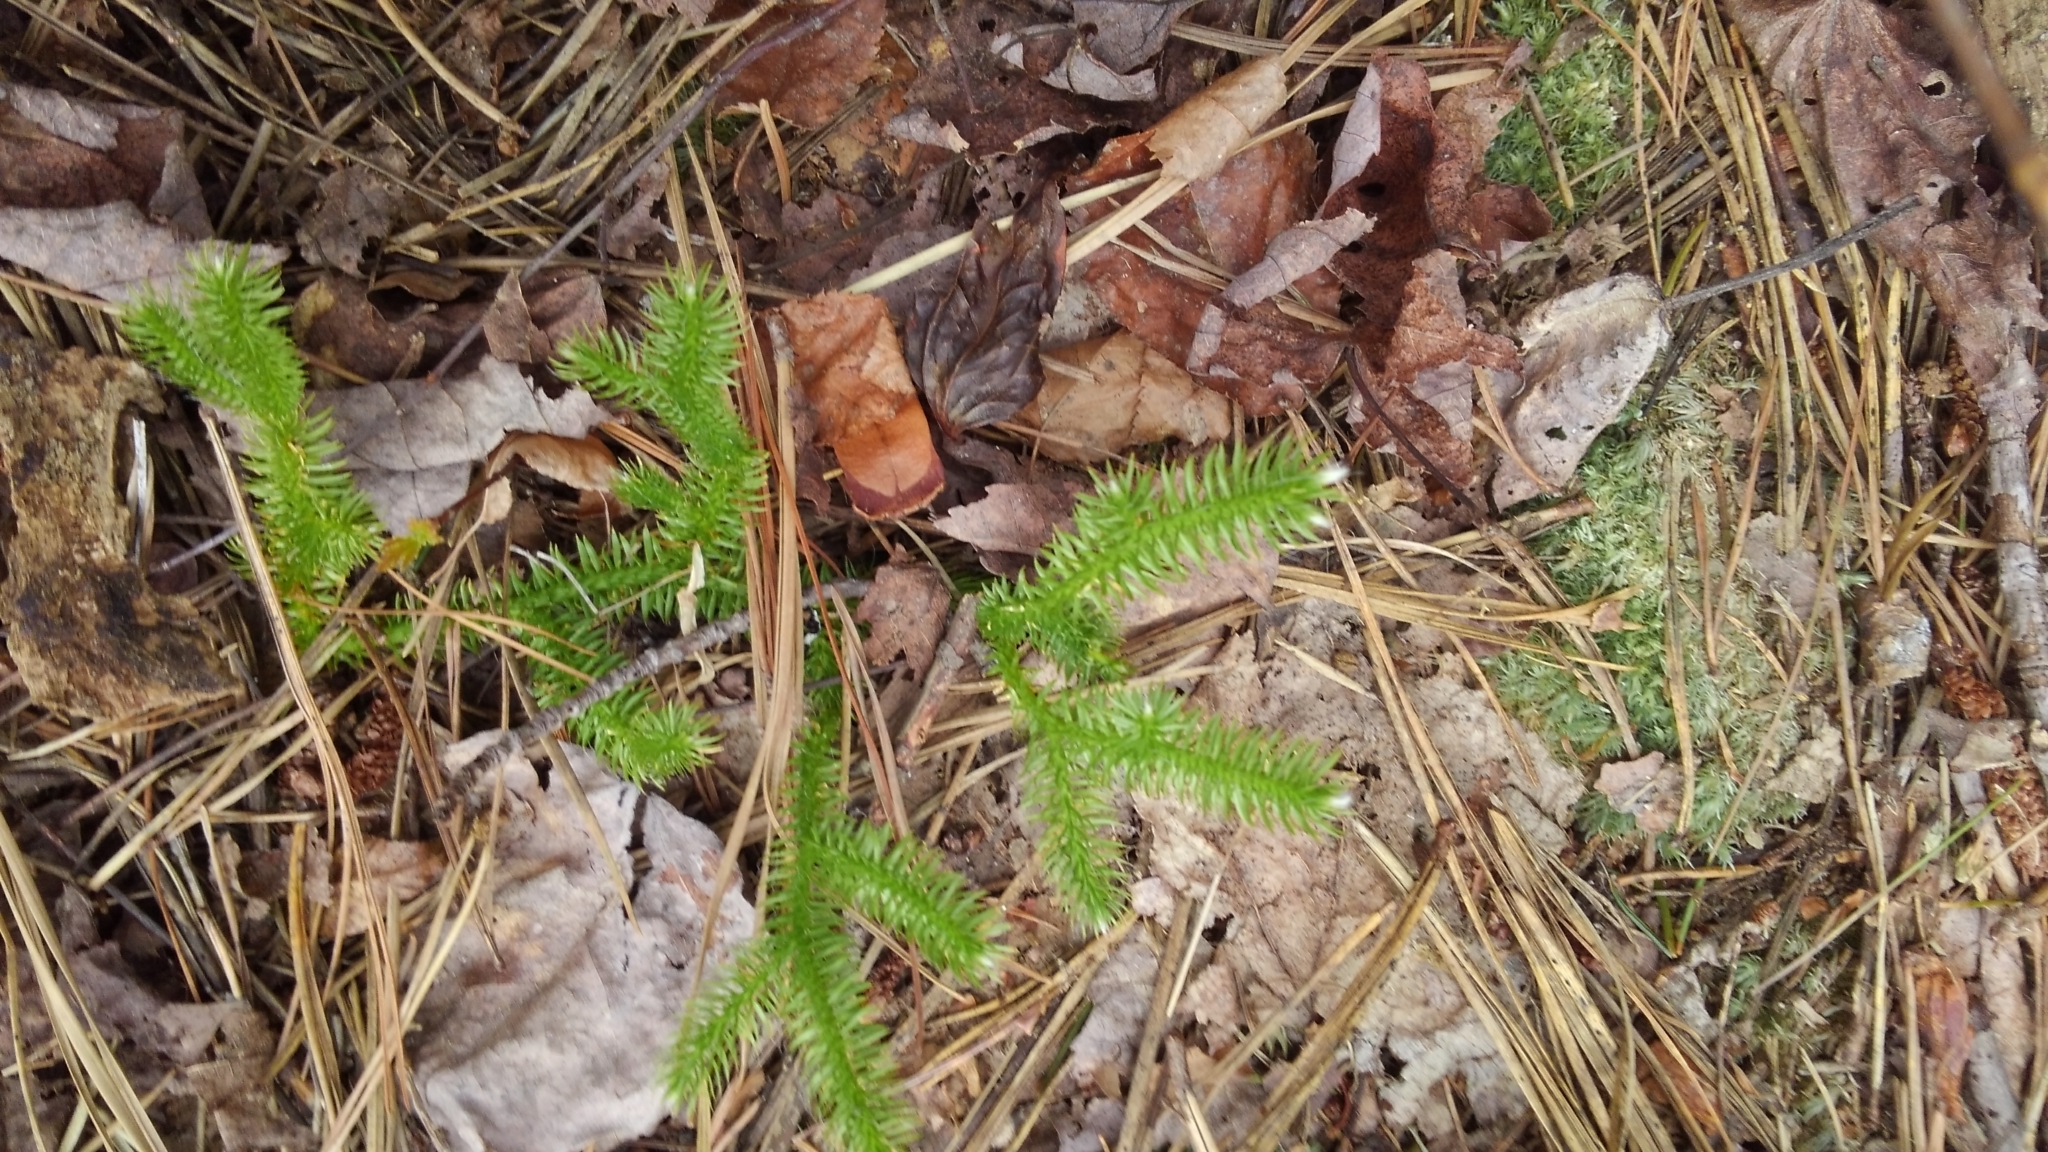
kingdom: Plantae
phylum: Tracheophyta
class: Lycopodiopsida
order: Lycopodiales
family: Lycopodiaceae
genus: Lycopodium
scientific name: Lycopodium clavatum
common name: Stag's-horn clubmoss
